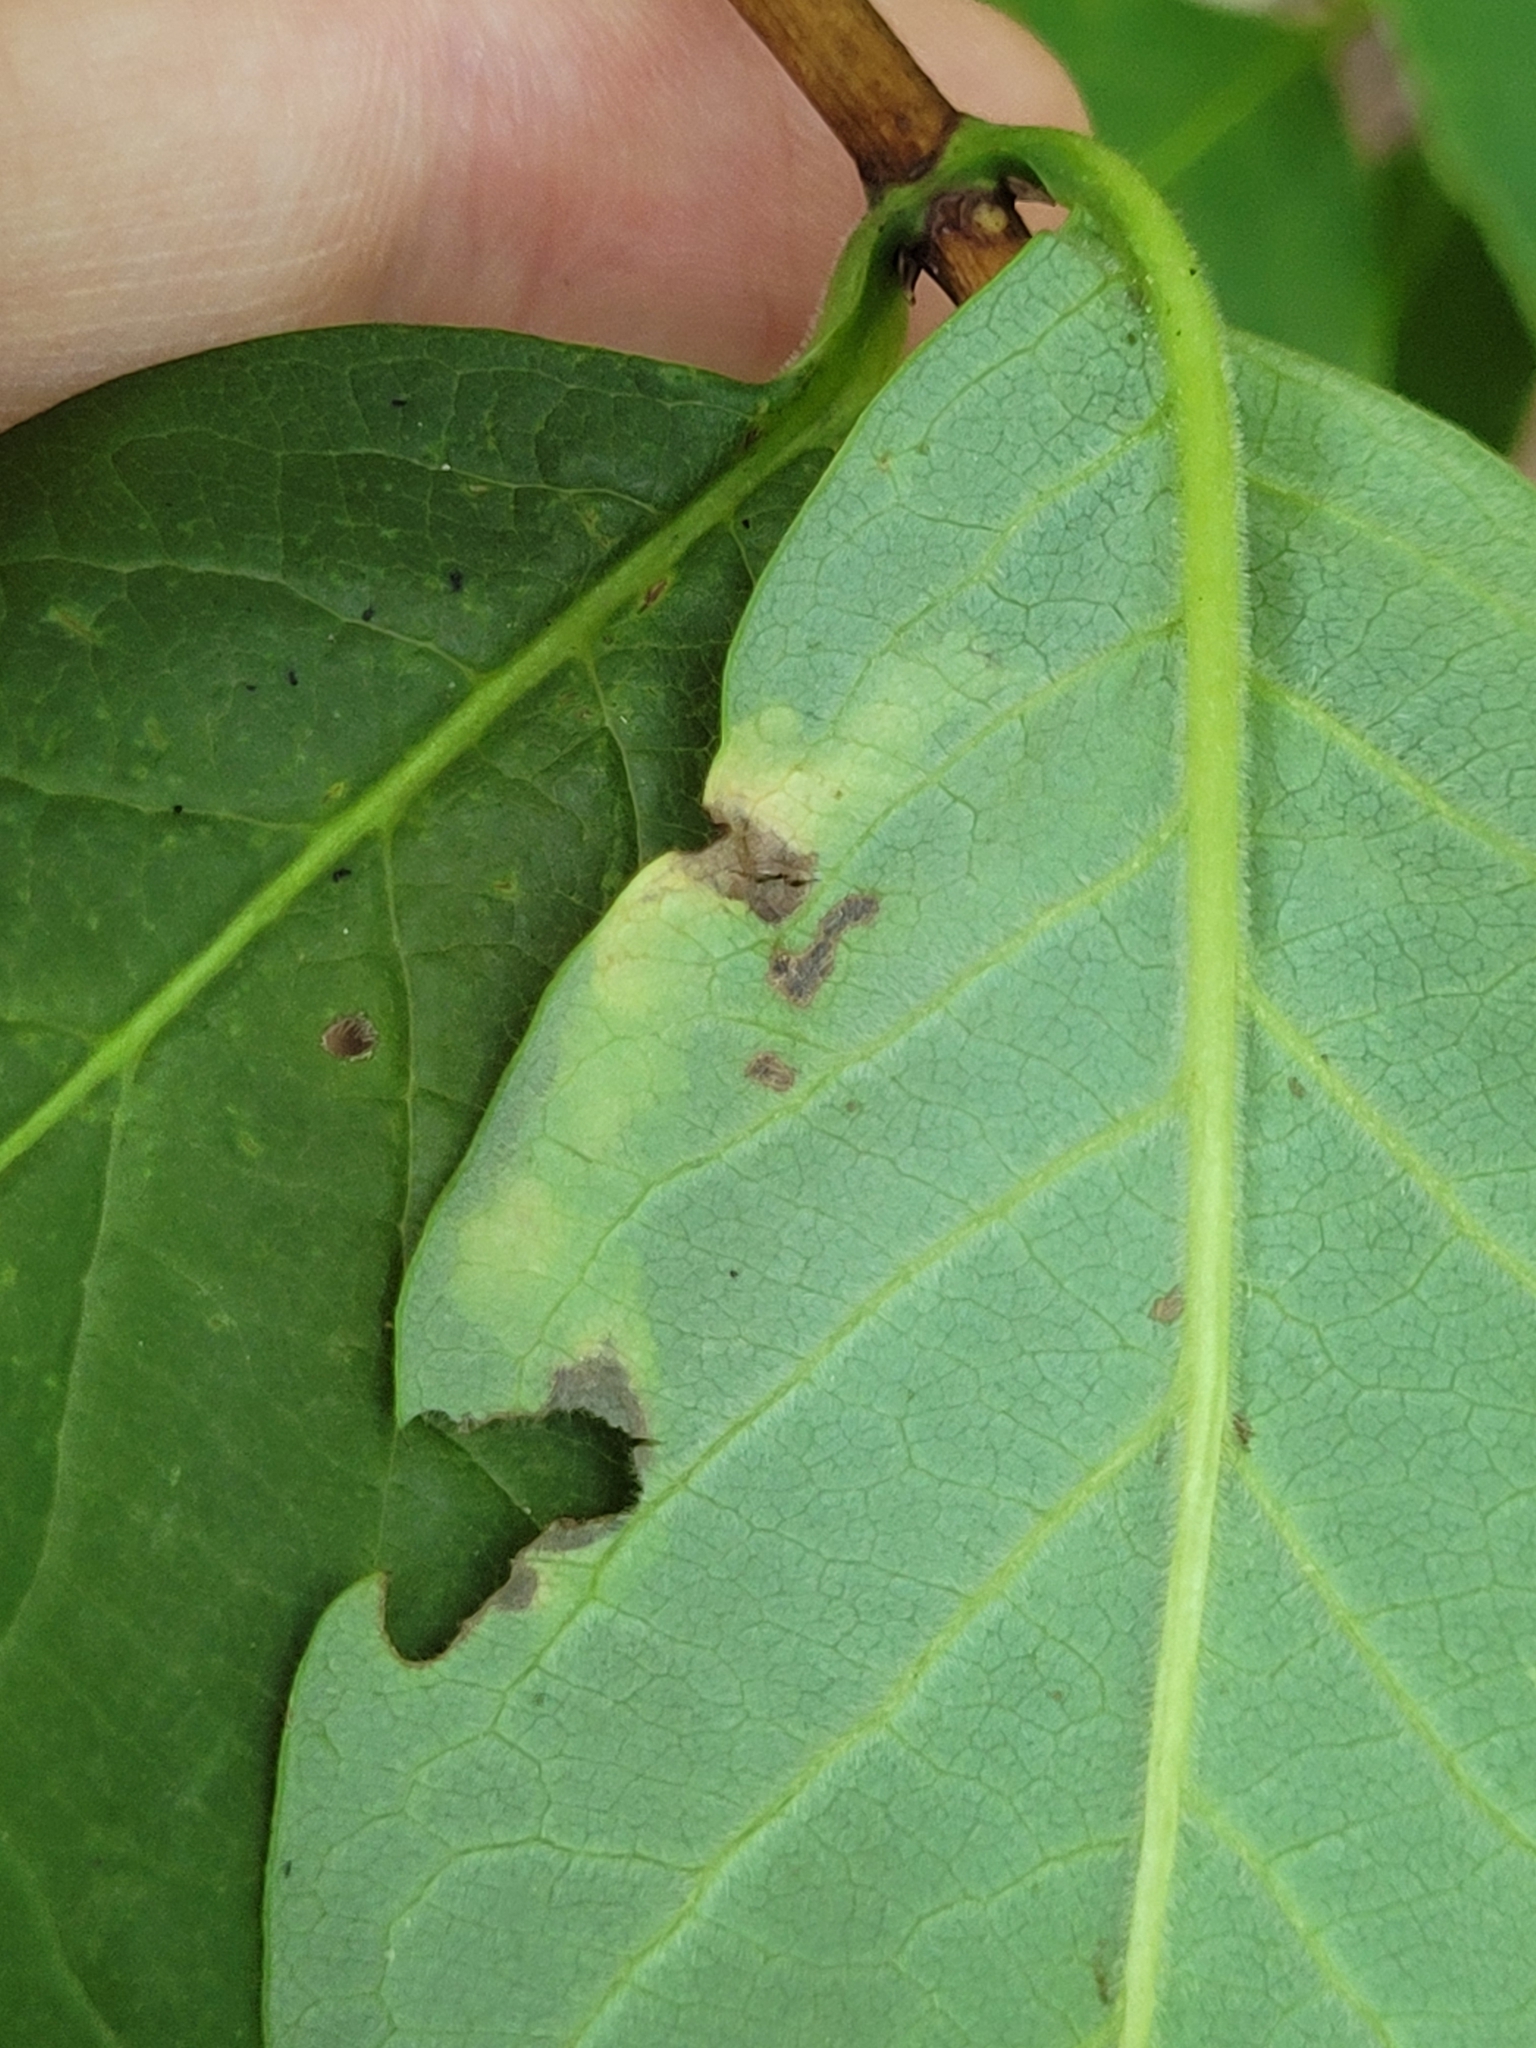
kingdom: Animalia
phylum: Arthropoda
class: Insecta
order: Diptera
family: Agromyzidae
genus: Aulagromyza
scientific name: Aulagromyza cornigera
